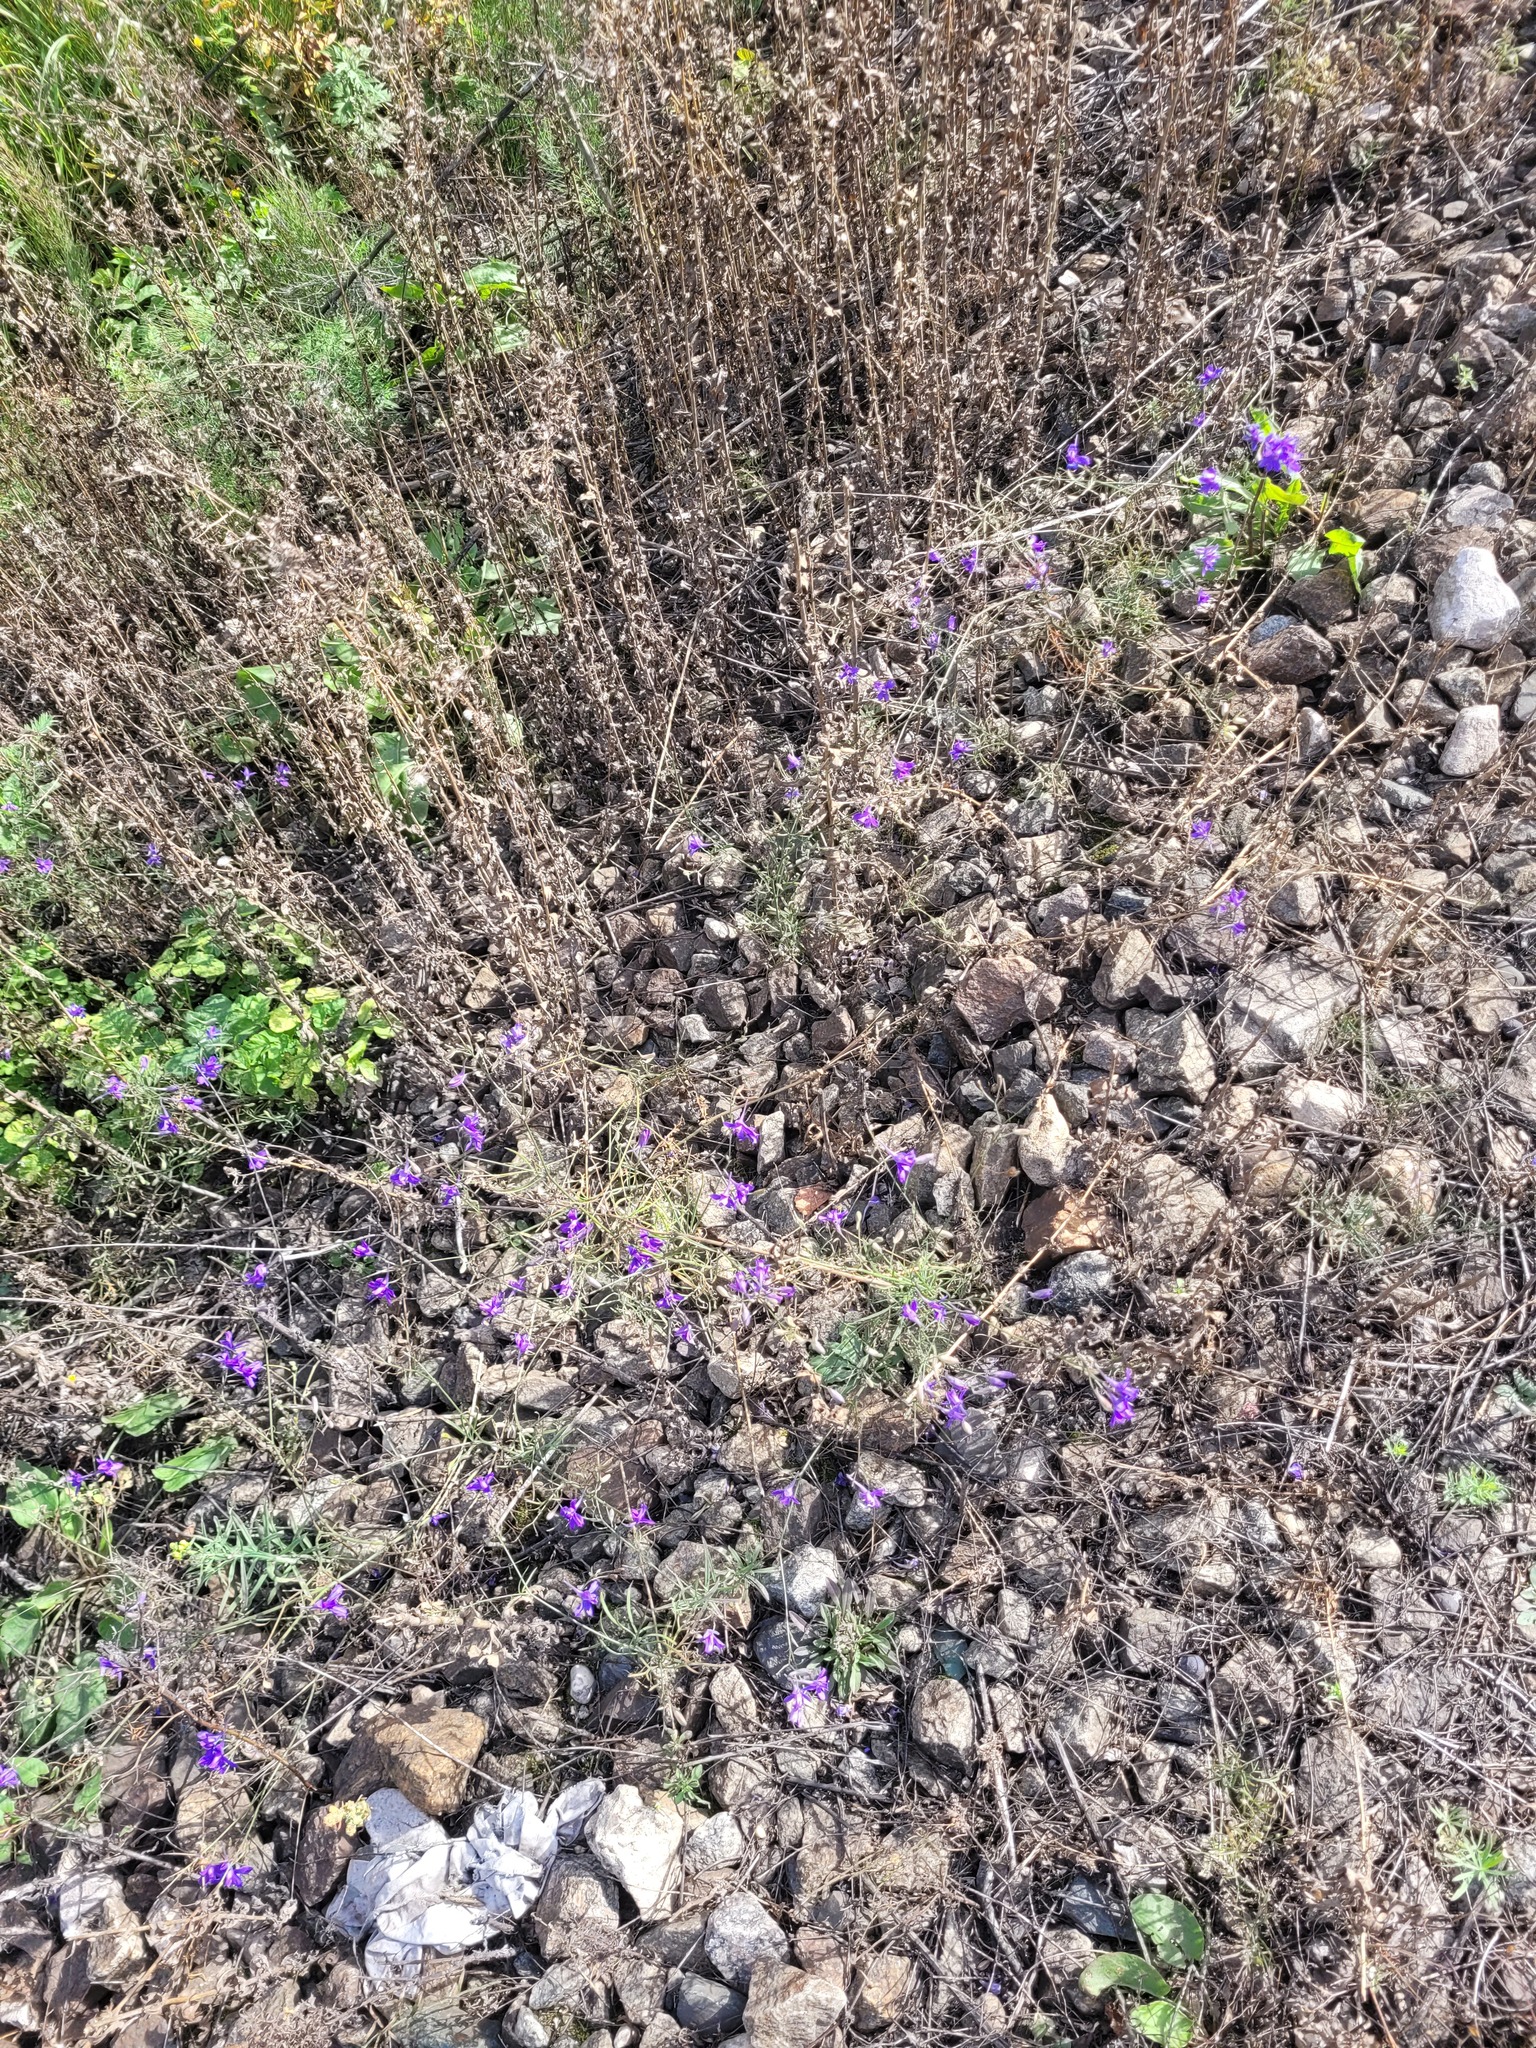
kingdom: Plantae
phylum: Tracheophyta
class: Magnoliopsida
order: Ranunculales
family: Ranunculaceae
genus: Delphinium
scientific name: Delphinium consolida
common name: Branching larkspur
